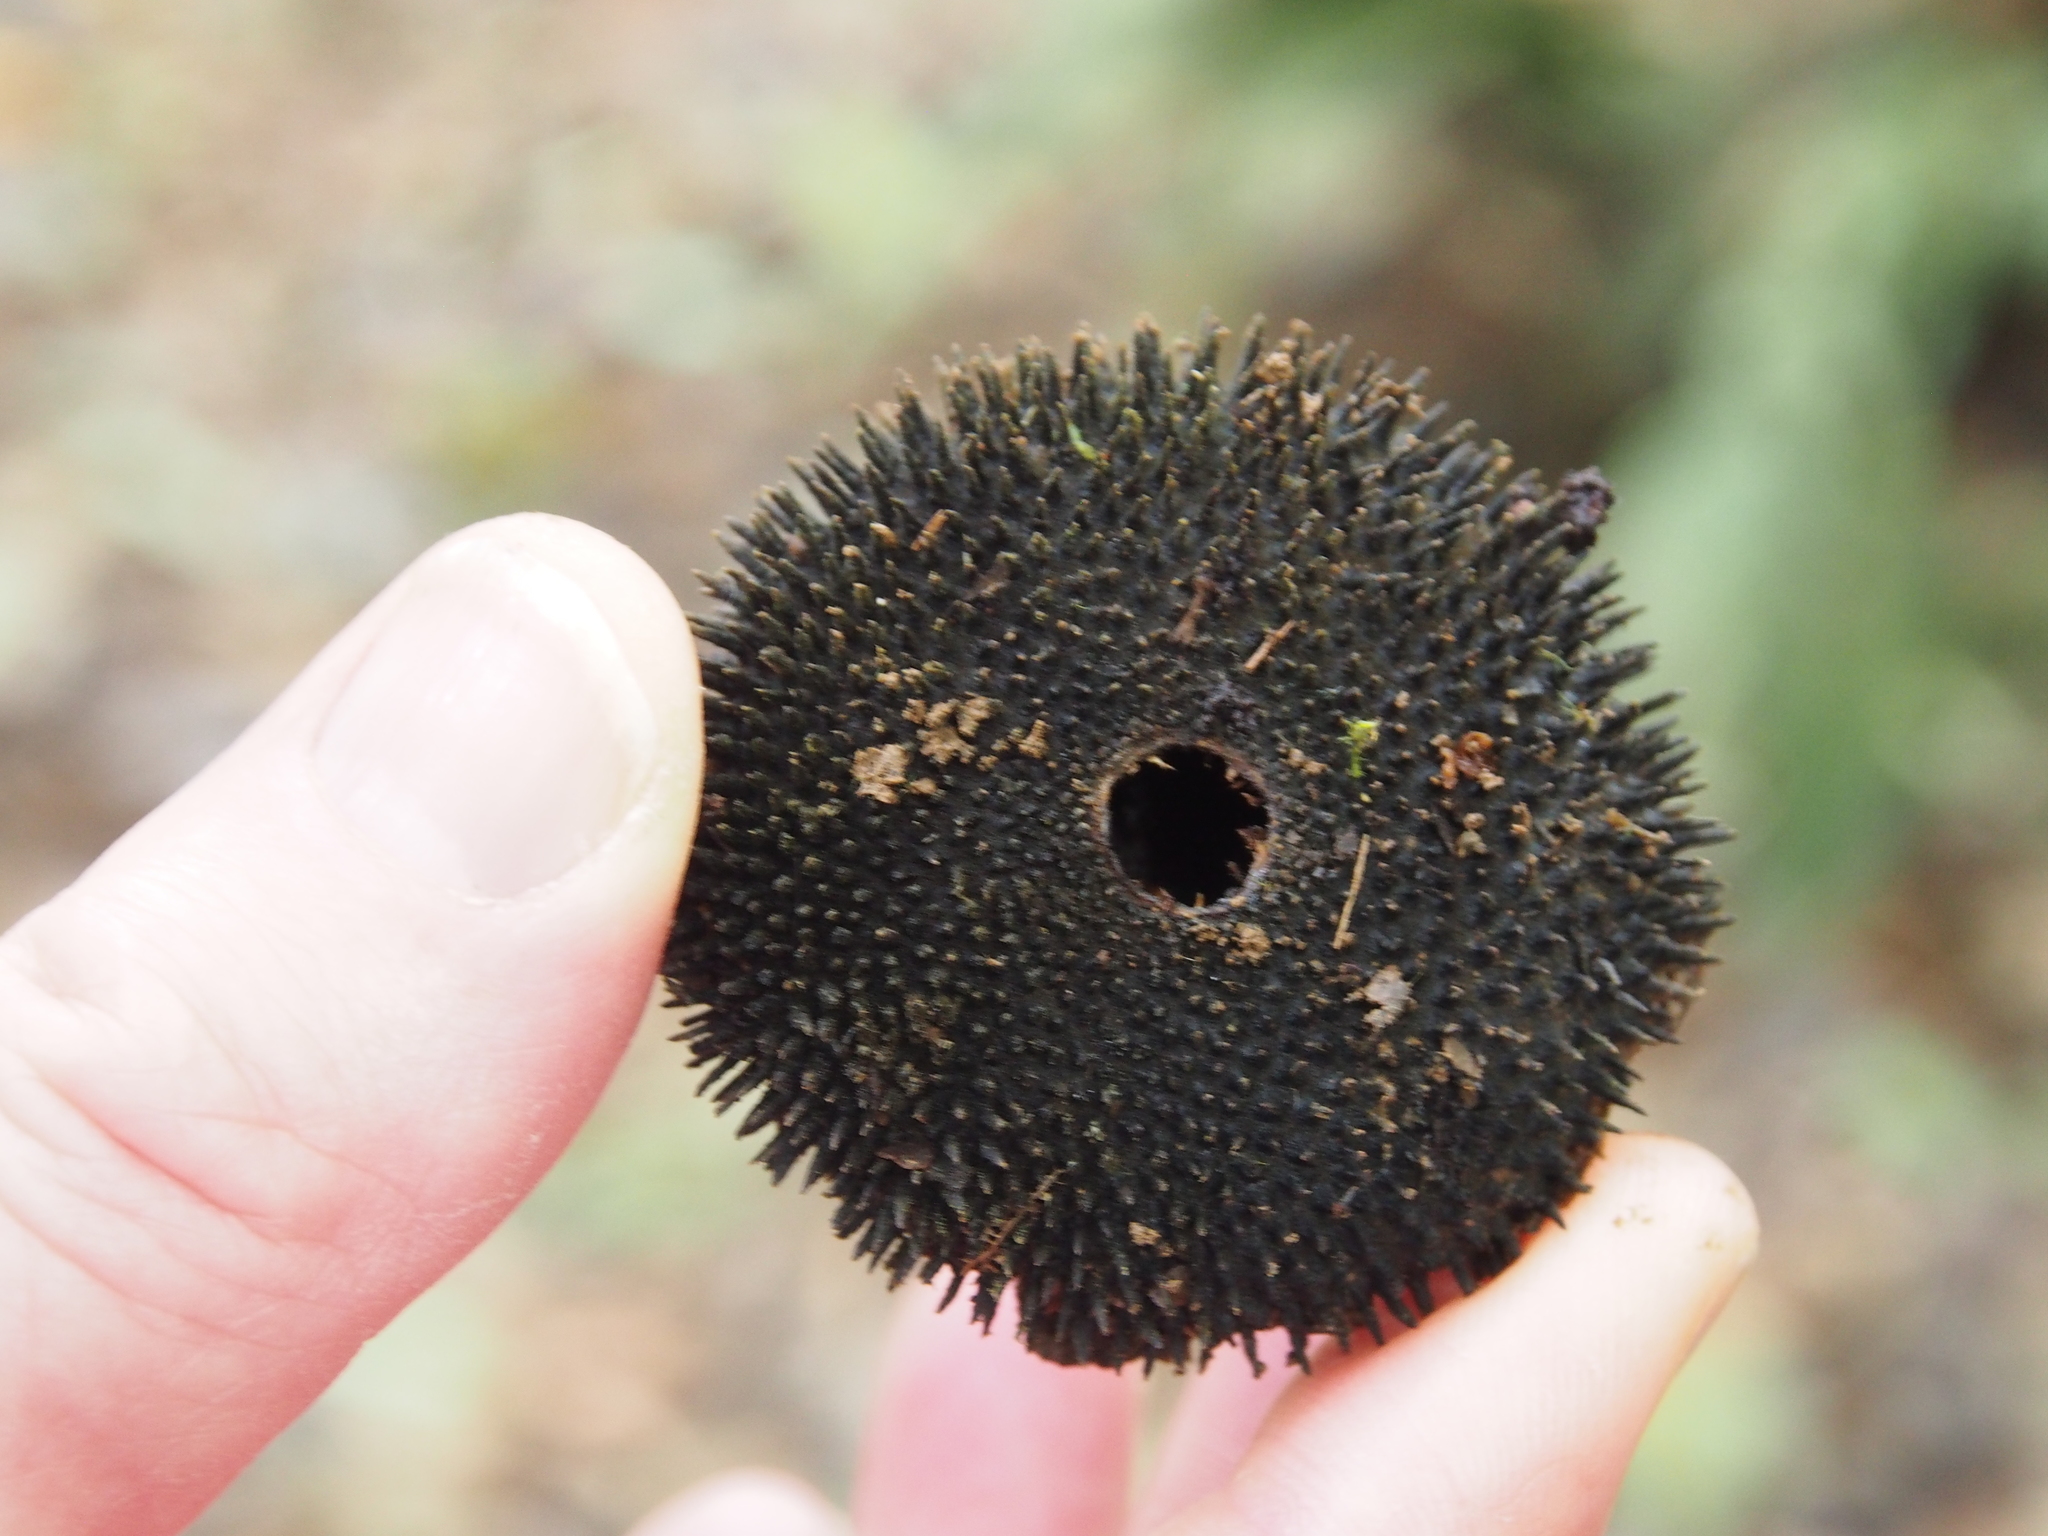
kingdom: Plantae
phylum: Tracheophyta
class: Magnoliopsida
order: Malvales
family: Malvaceae
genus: Apeiba
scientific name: Apeiba membranacea
